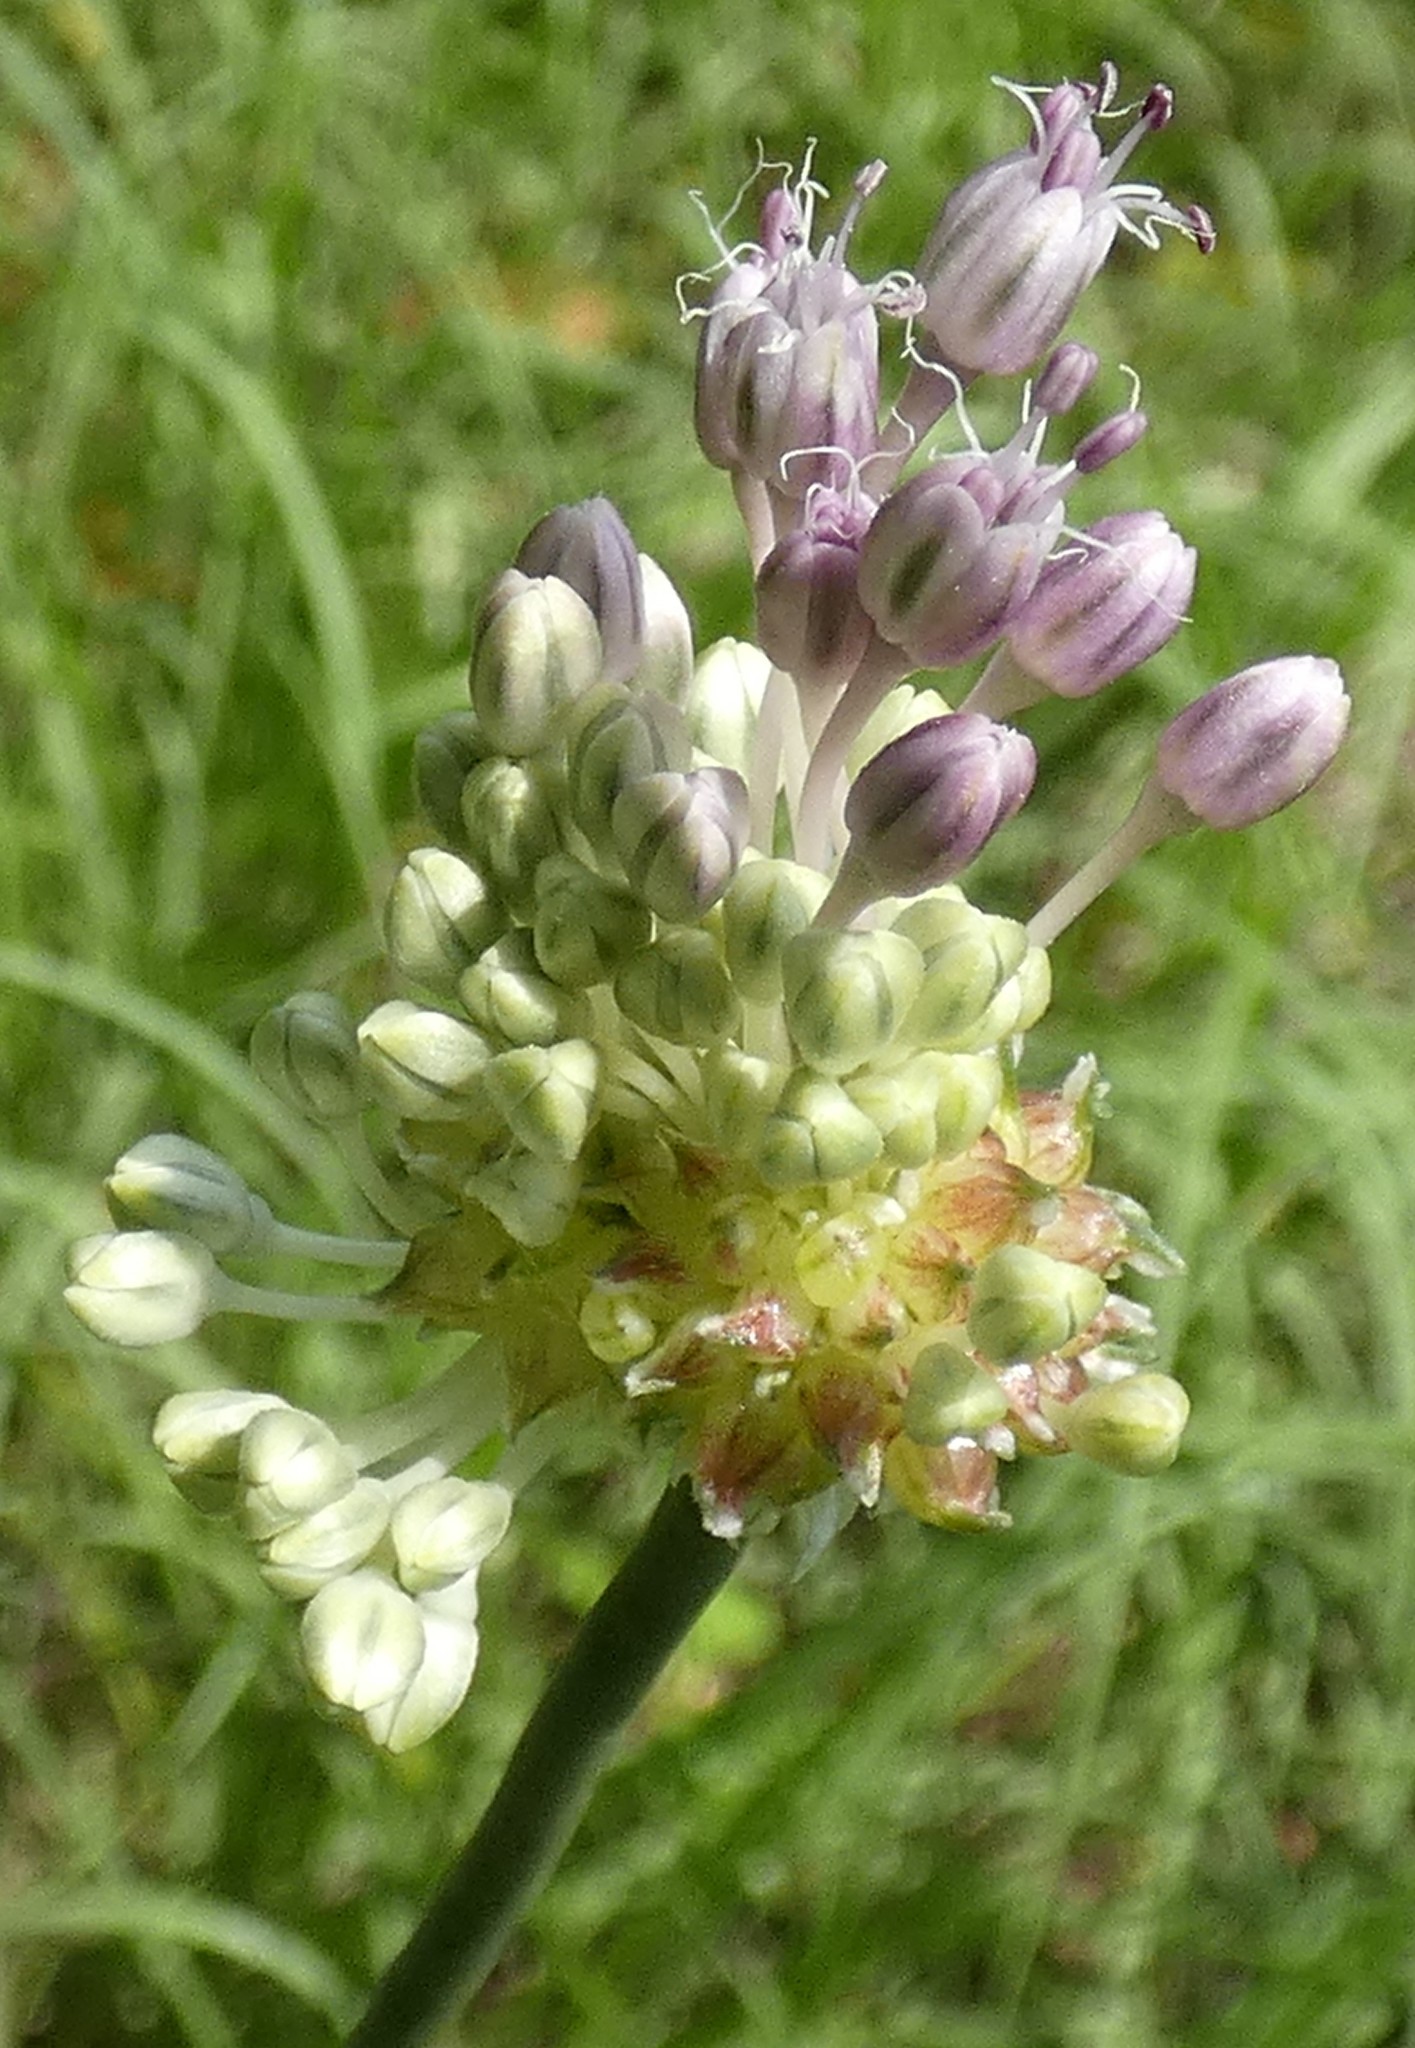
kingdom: Plantae
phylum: Tracheophyta
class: Liliopsida
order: Asparagales
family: Amaryllidaceae
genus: Allium
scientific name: Allium vineale
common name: Crow garlic
